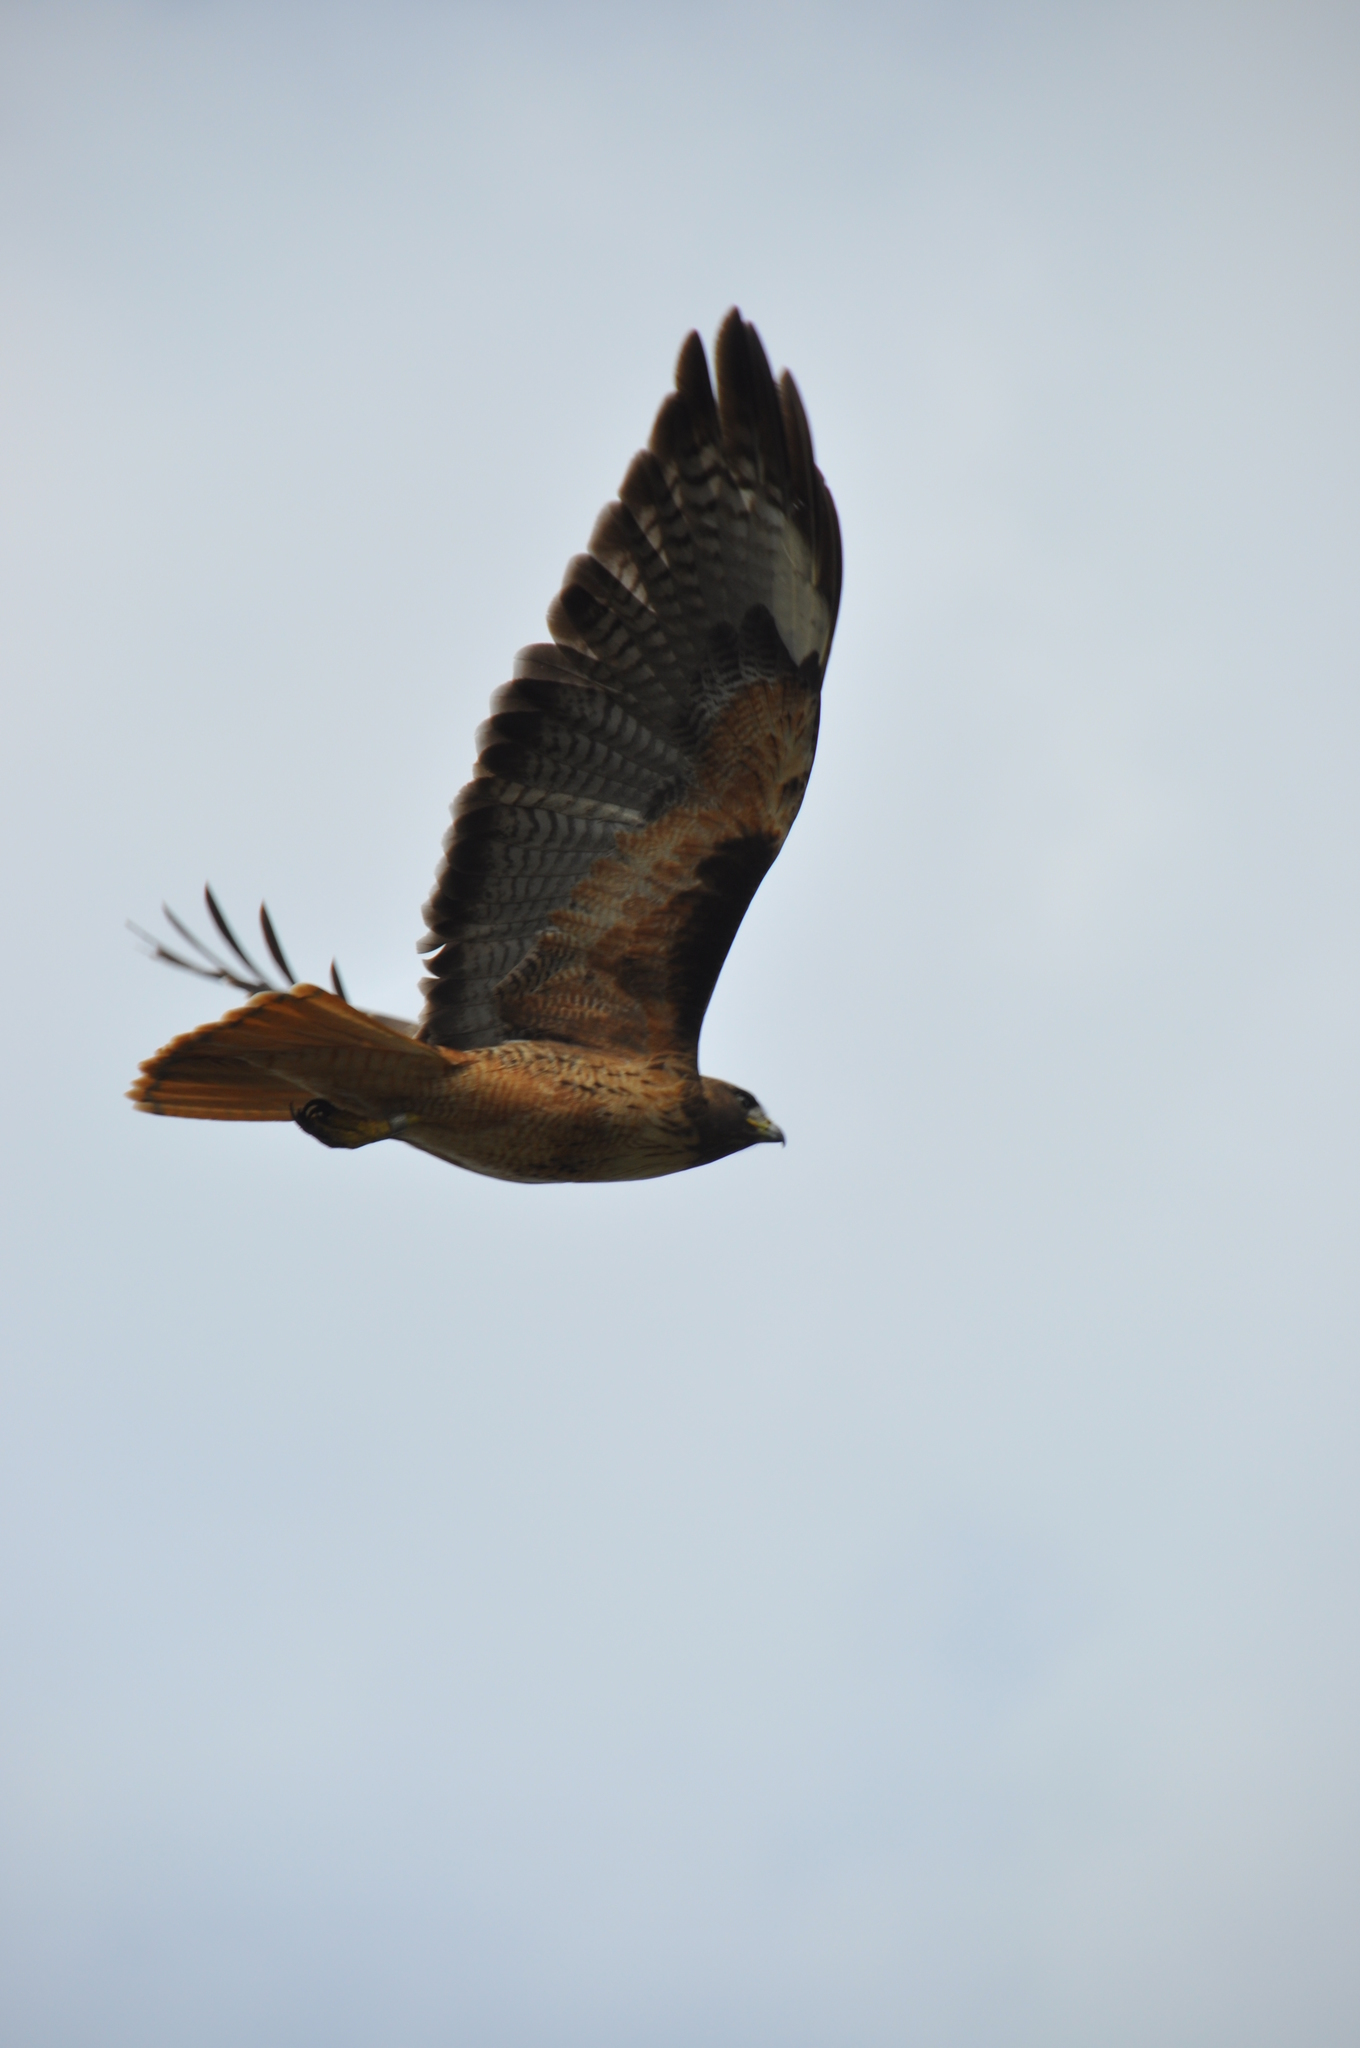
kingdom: Animalia
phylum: Chordata
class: Aves
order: Accipitriformes
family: Accipitridae
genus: Buteo
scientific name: Buteo jamaicensis
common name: Red-tailed hawk
